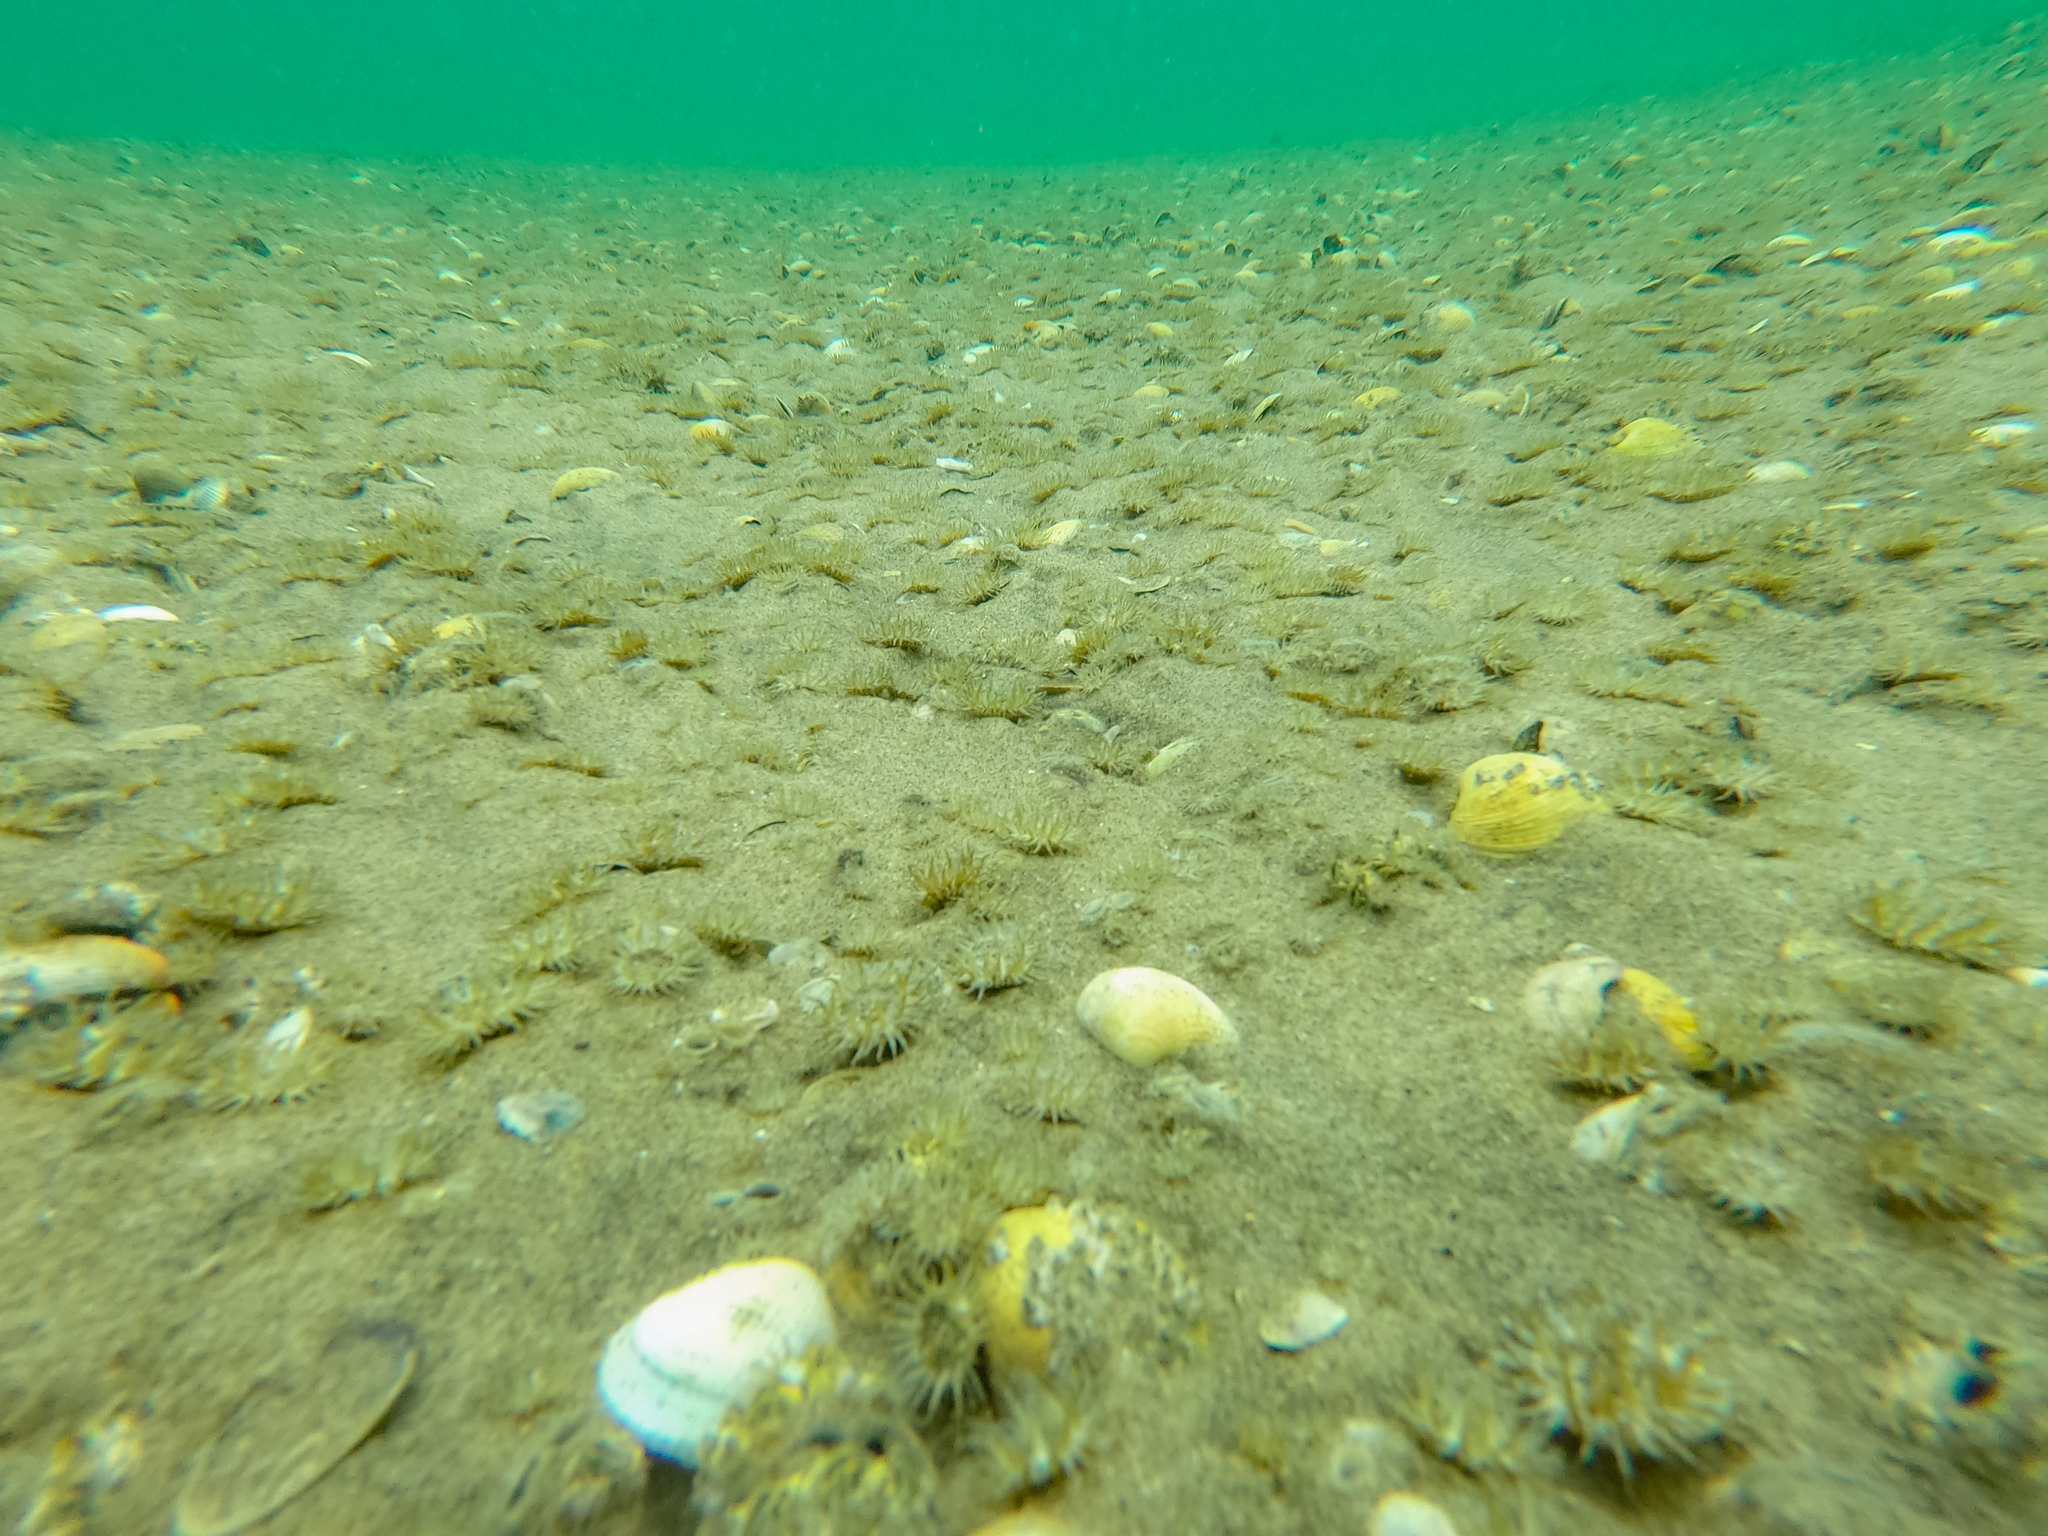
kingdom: Animalia
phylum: Cnidaria
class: Anthozoa
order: Actiniaria
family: Actiniidae
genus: Anthopleura
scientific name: Anthopleura hermaphroditica
